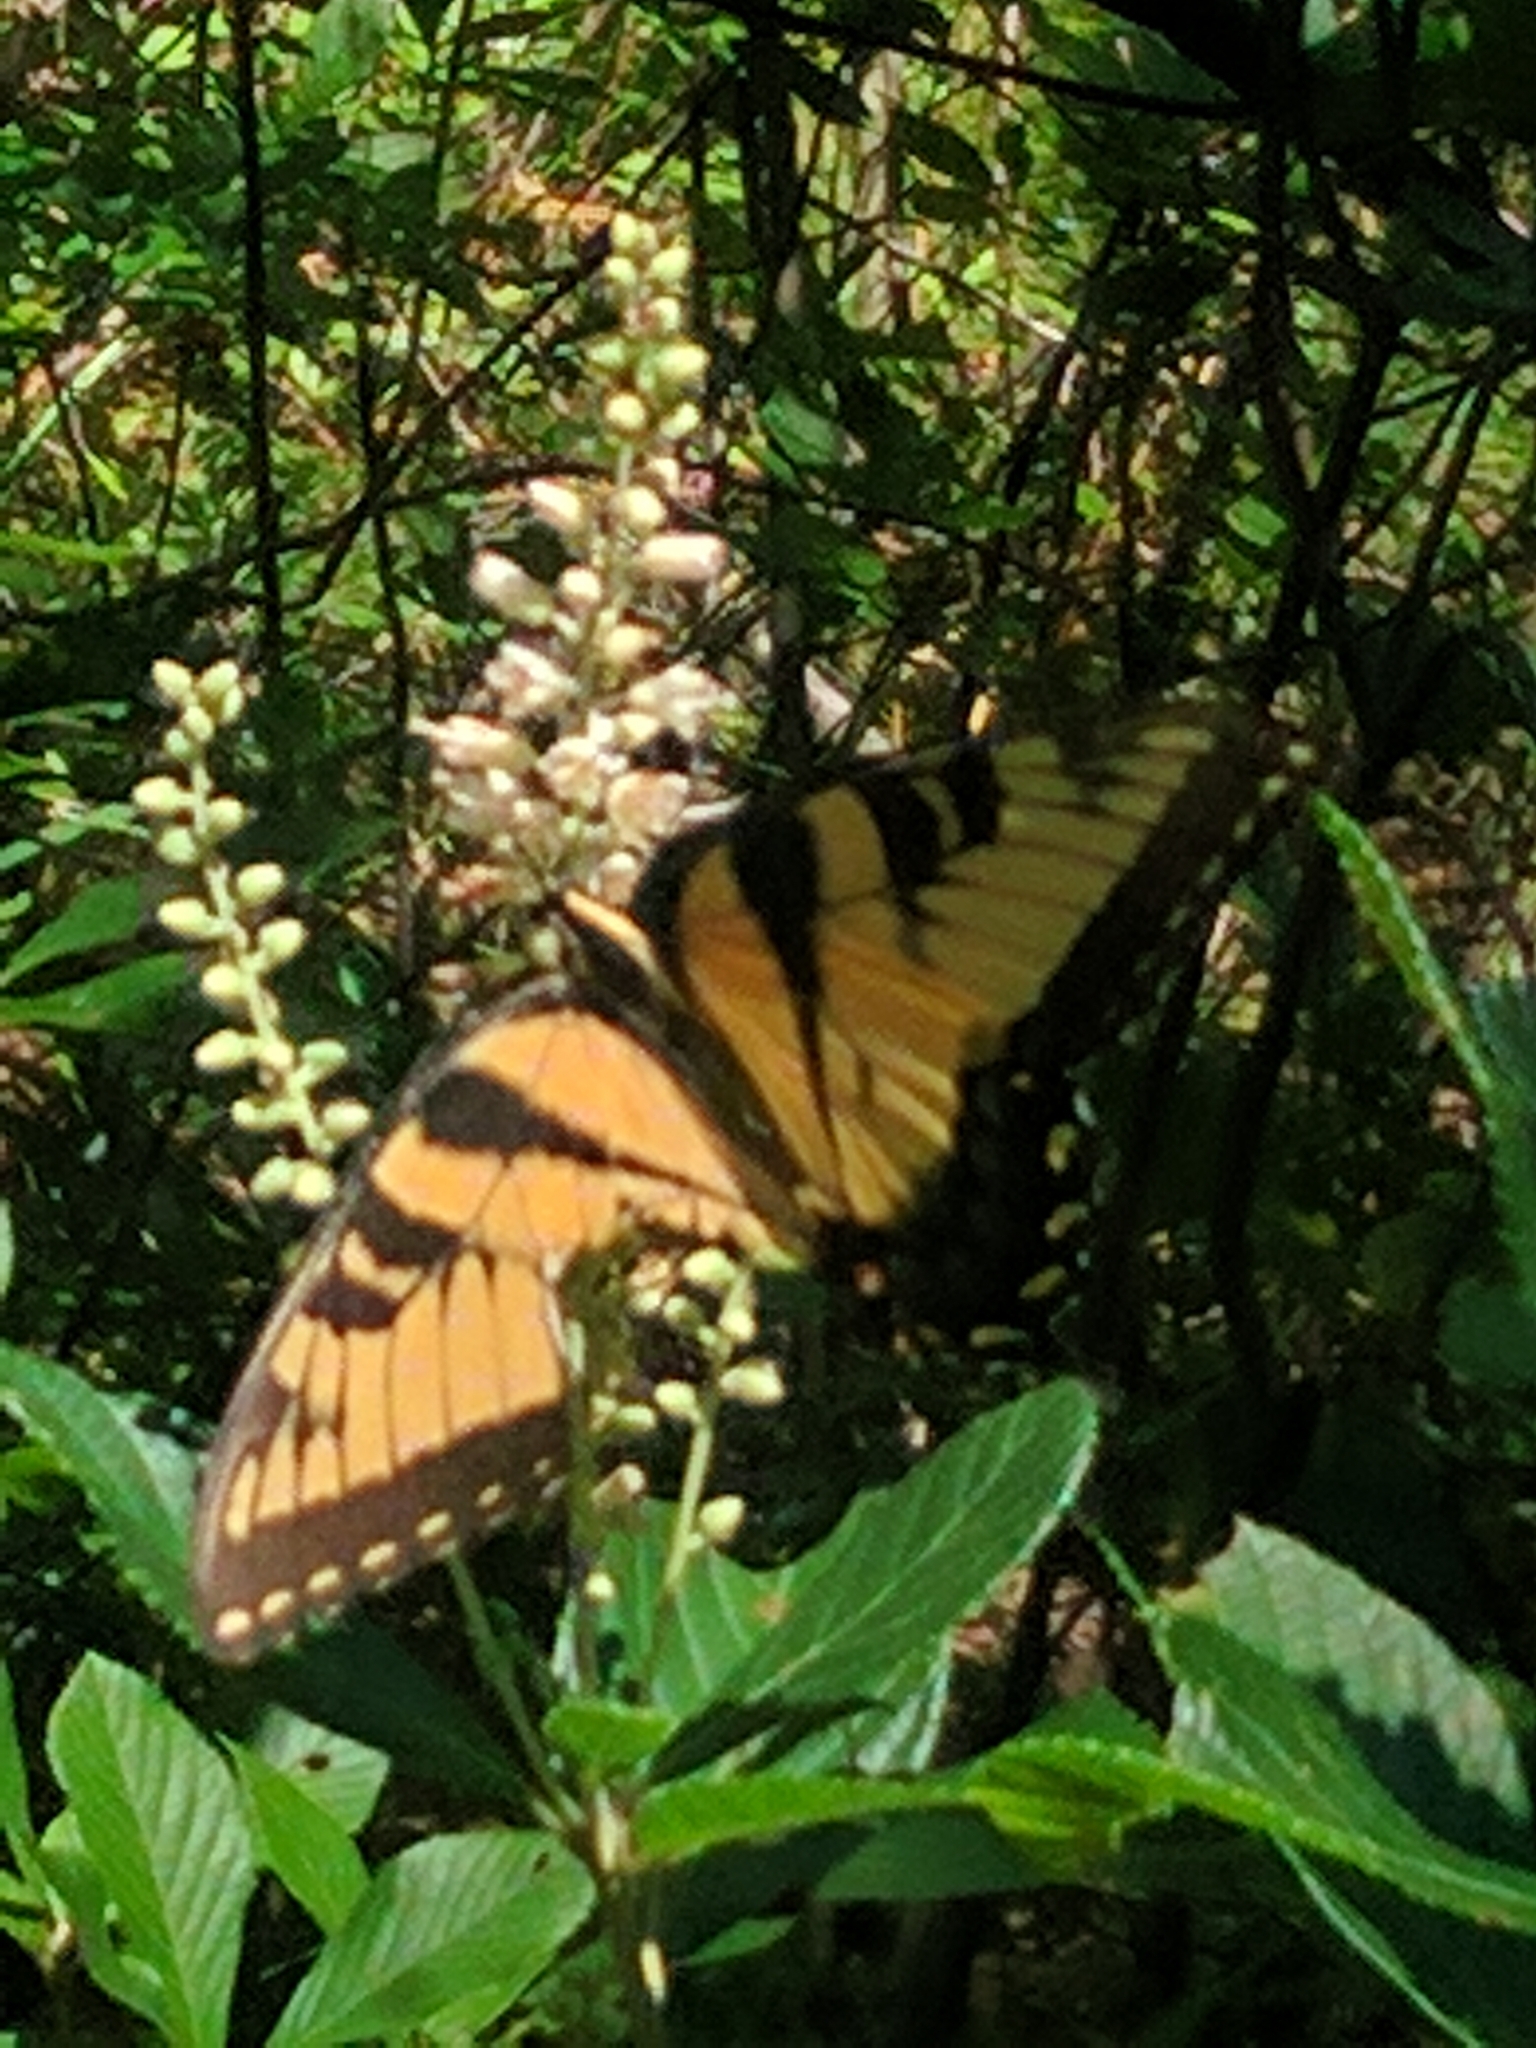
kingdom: Animalia
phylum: Arthropoda
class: Insecta
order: Lepidoptera
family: Papilionidae
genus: Papilio
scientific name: Papilio glaucus
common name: Tiger swallowtail
